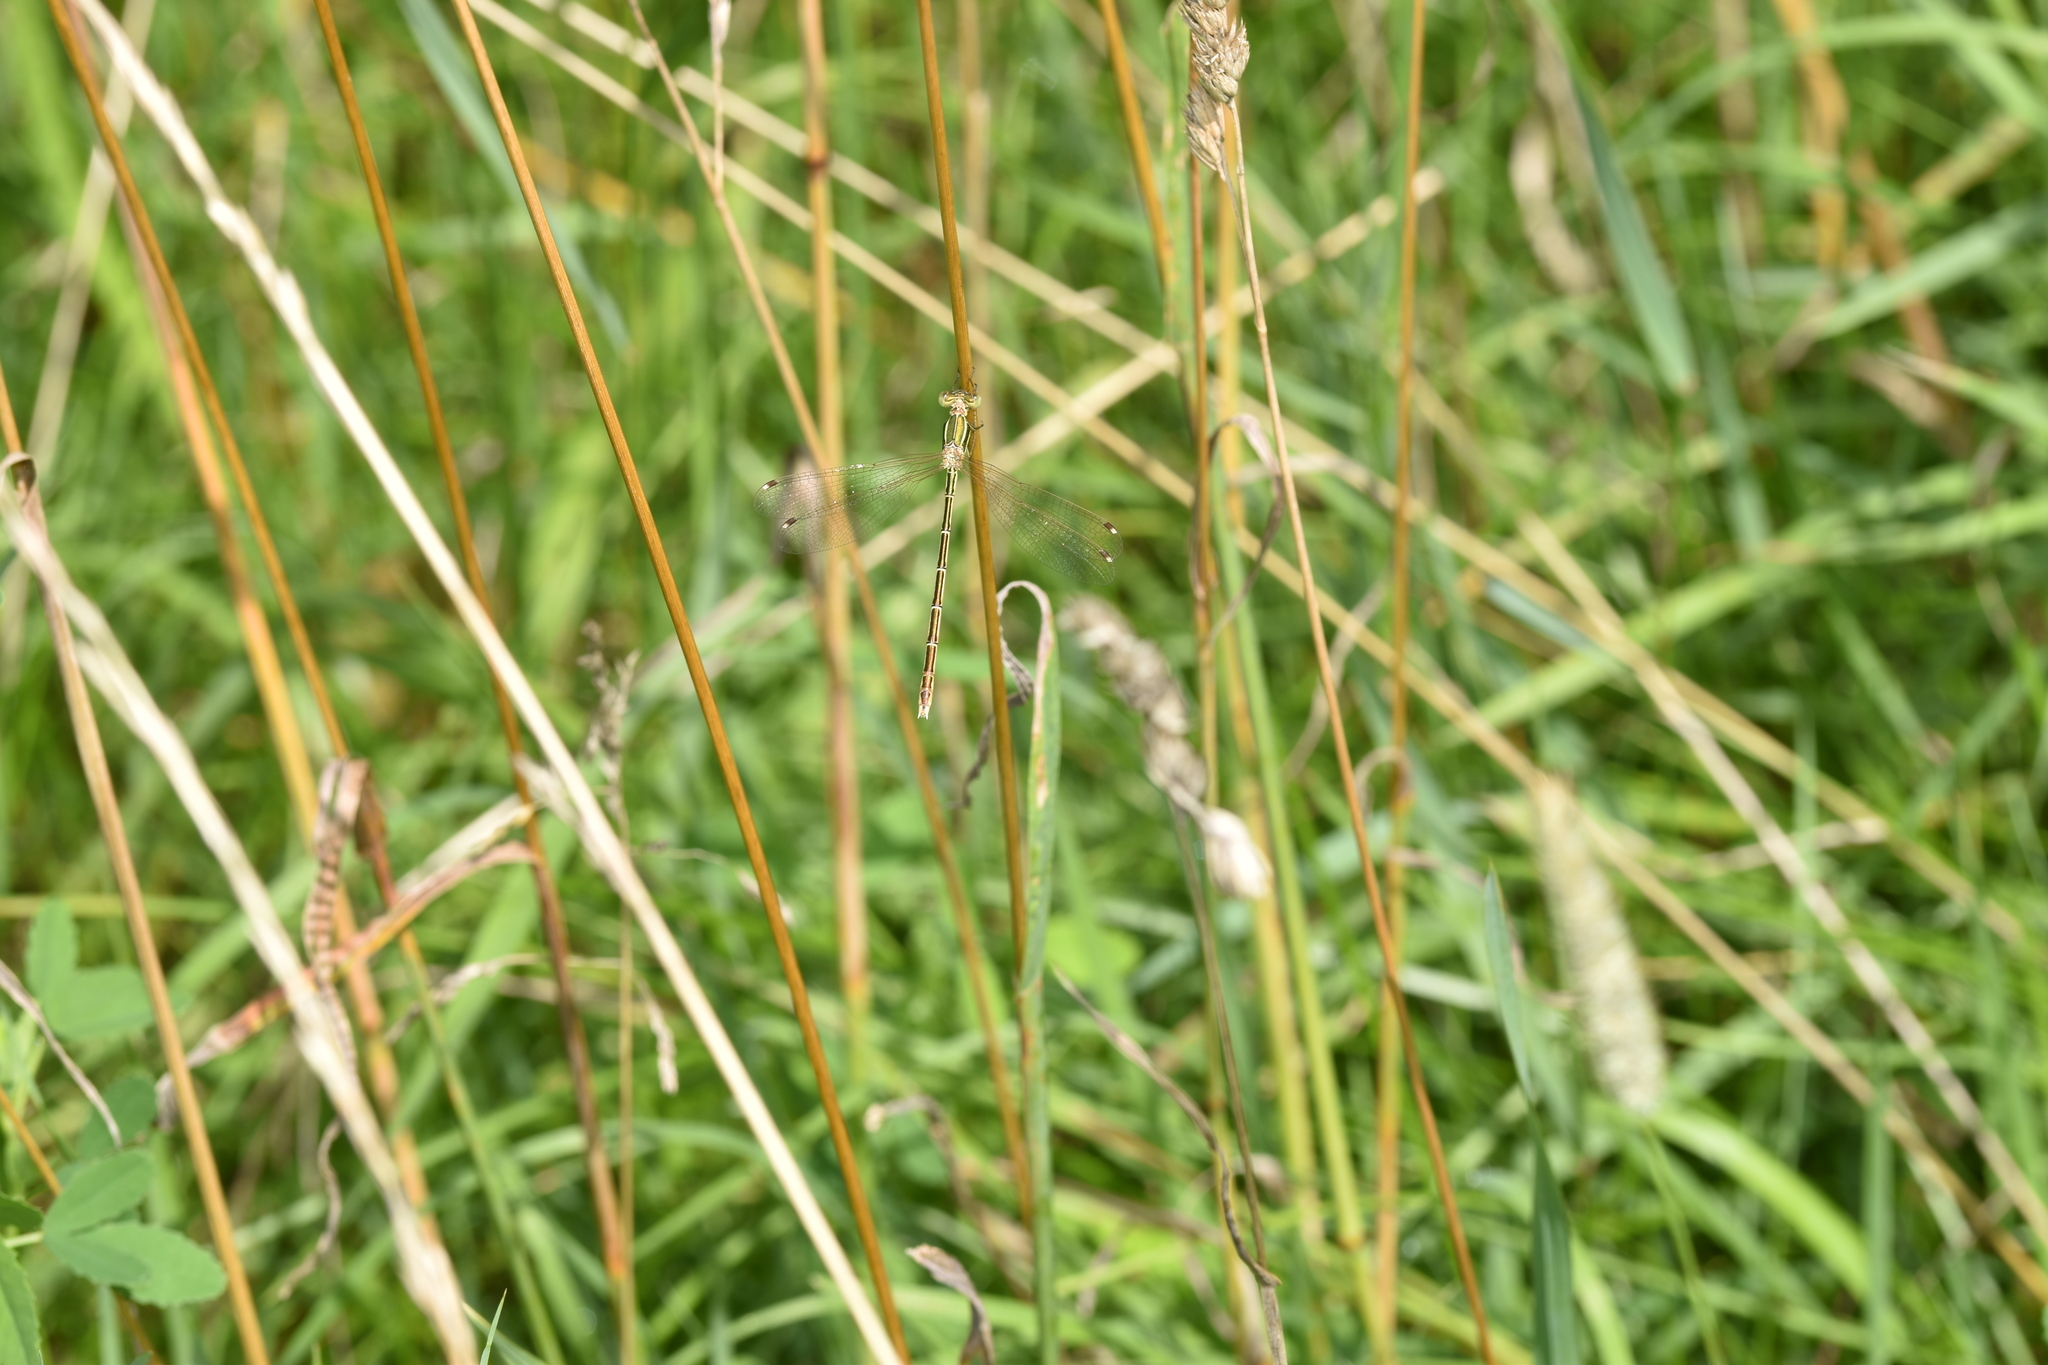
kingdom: Animalia
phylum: Arthropoda
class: Insecta
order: Odonata
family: Lestidae
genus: Lestes
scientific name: Lestes barbarus
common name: Migrant spreadwing
